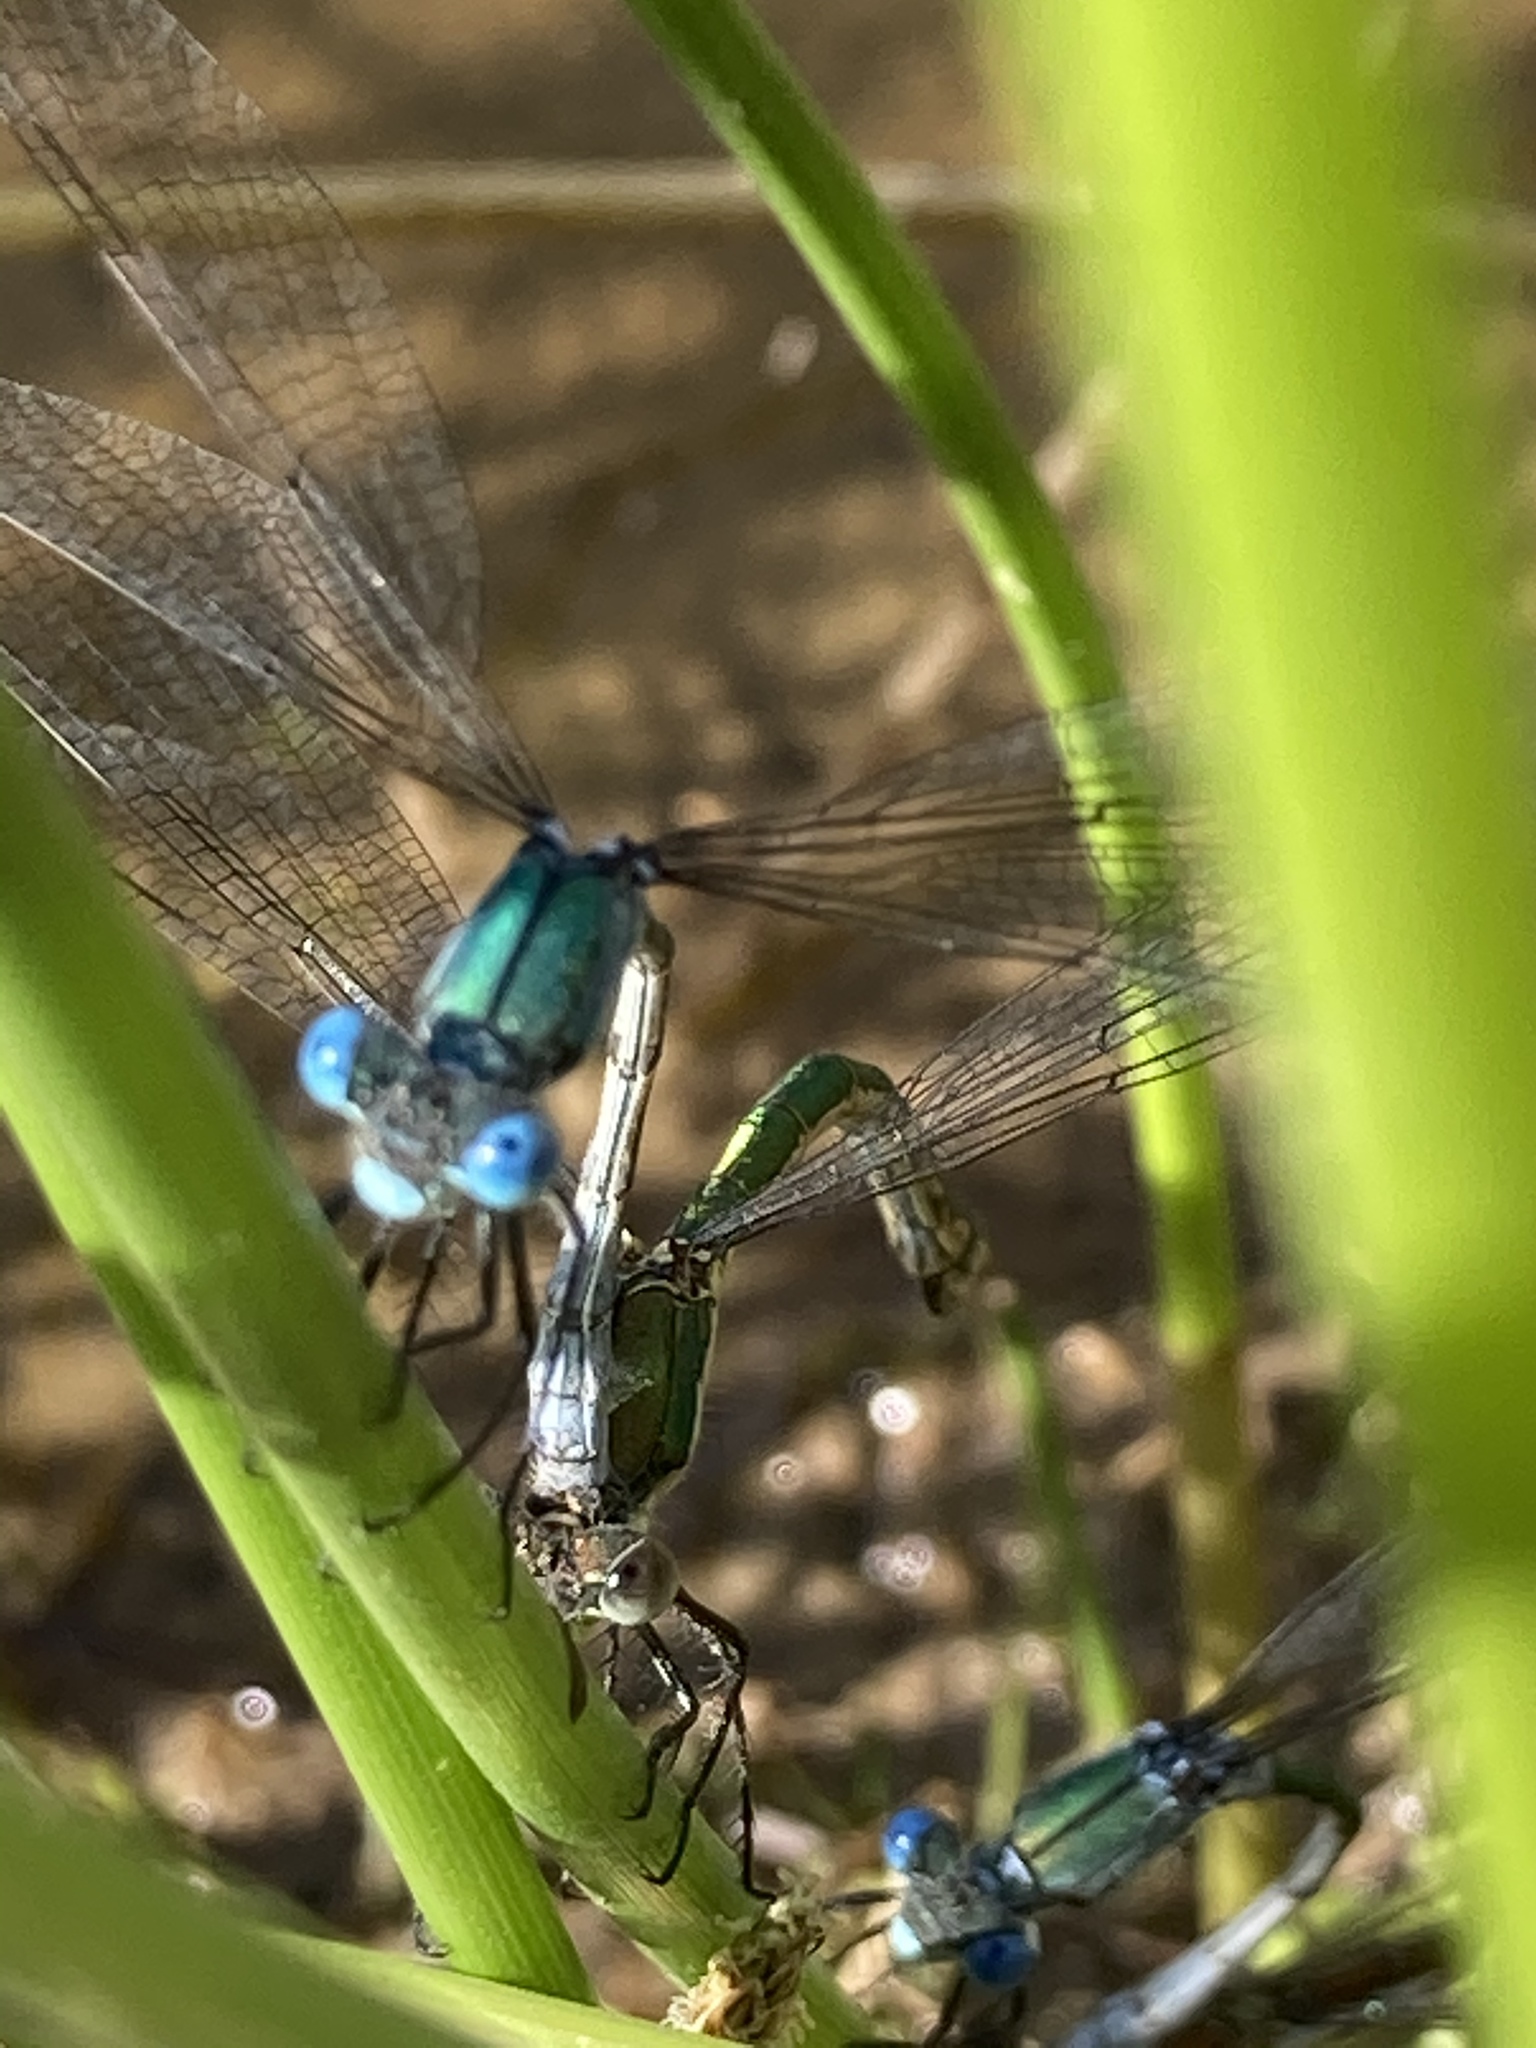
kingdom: Animalia
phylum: Arthropoda
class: Insecta
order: Odonata
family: Lestidae
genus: Lestes
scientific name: Lestes dryas
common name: Scarce emerald damselfly
